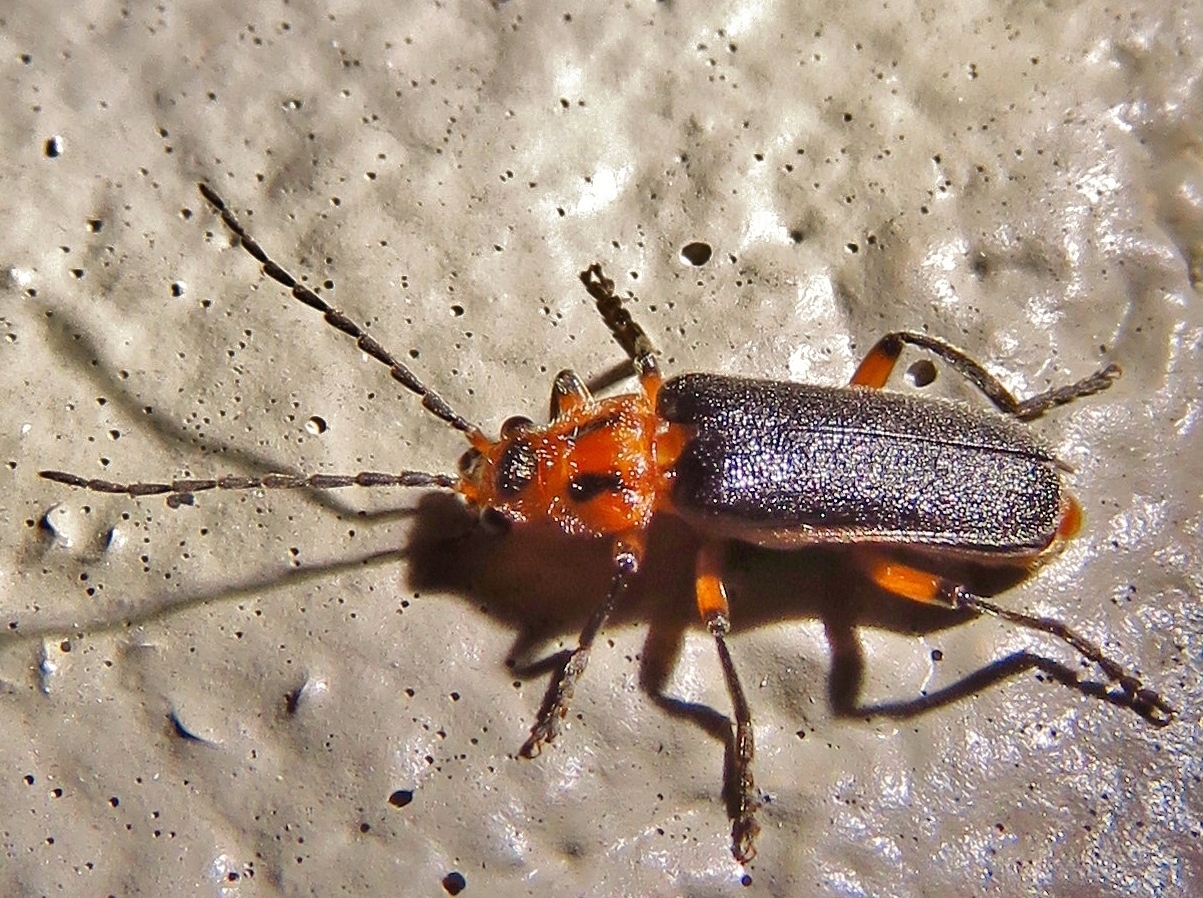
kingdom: Animalia
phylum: Arthropoda
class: Insecta
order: Coleoptera
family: Cantharidae
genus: Atalantycha
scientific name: Atalantycha bilineata
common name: Two-lined leatherwing
